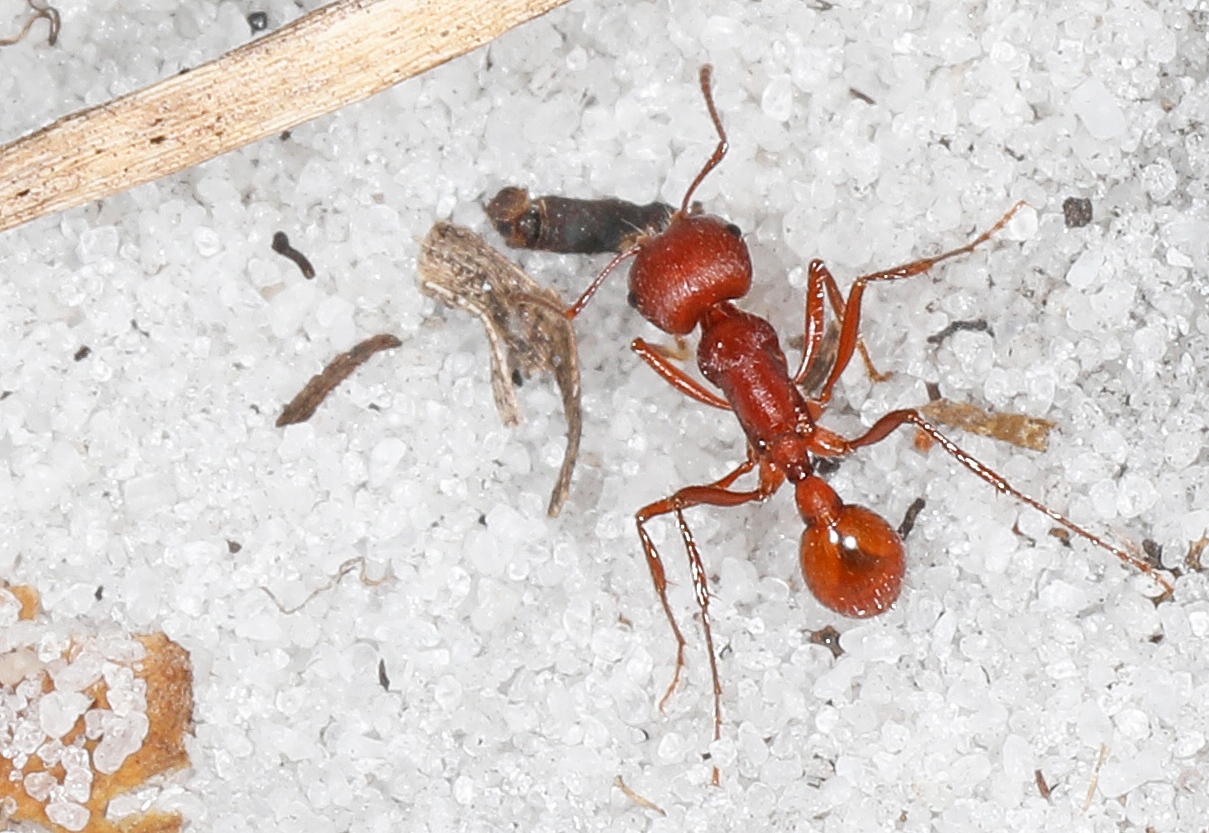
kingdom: Animalia
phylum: Arthropoda
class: Insecta
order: Hymenoptera
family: Formicidae
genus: Pogonomyrmex
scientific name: Pogonomyrmex badius
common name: Florida harvester ant
